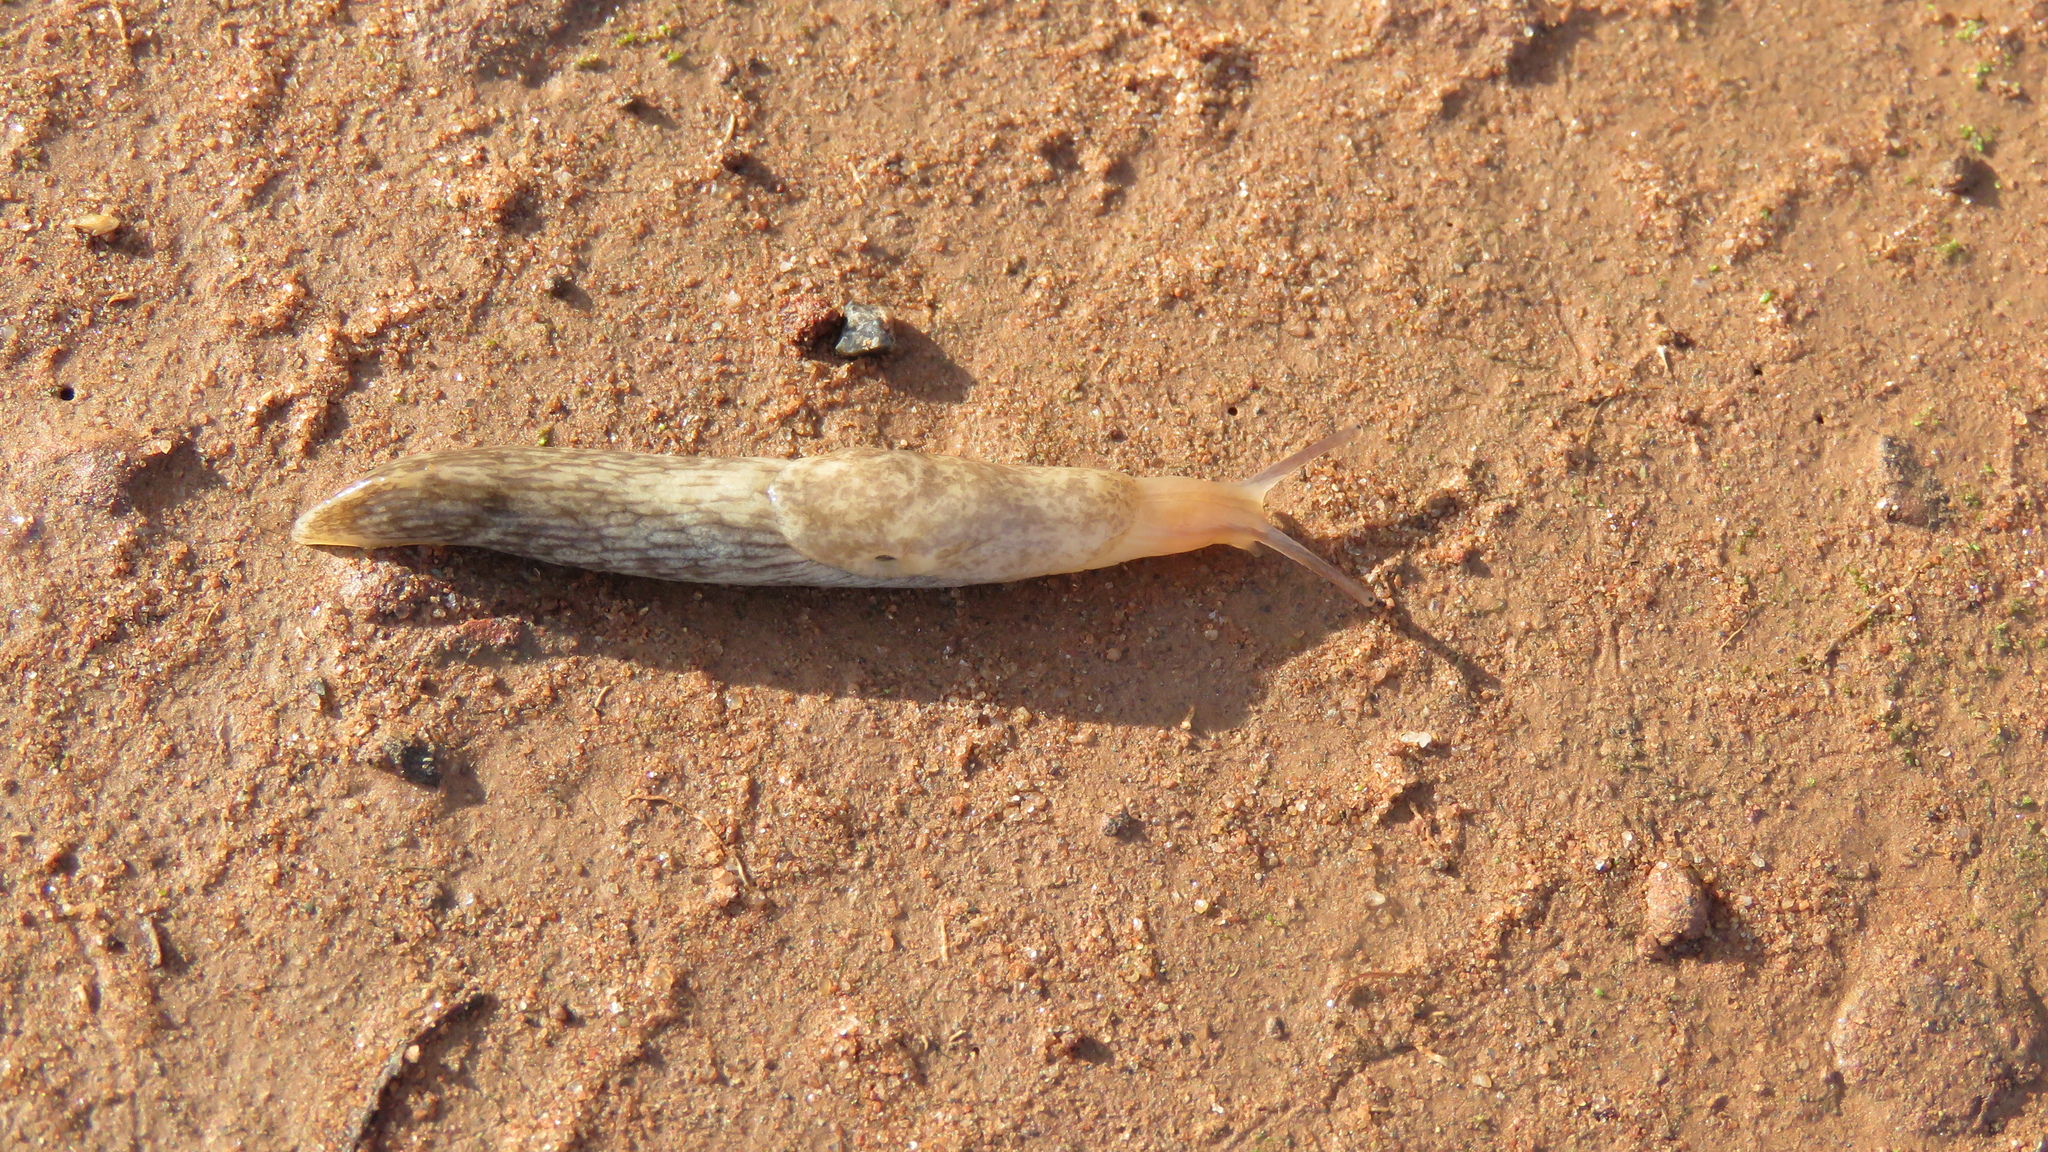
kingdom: Animalia
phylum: Mollusca
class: Gastropoda
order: Stylommatophora
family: Agriolimacidae
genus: Deroceras
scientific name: Deroceras reticulatum
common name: Gray field slug
